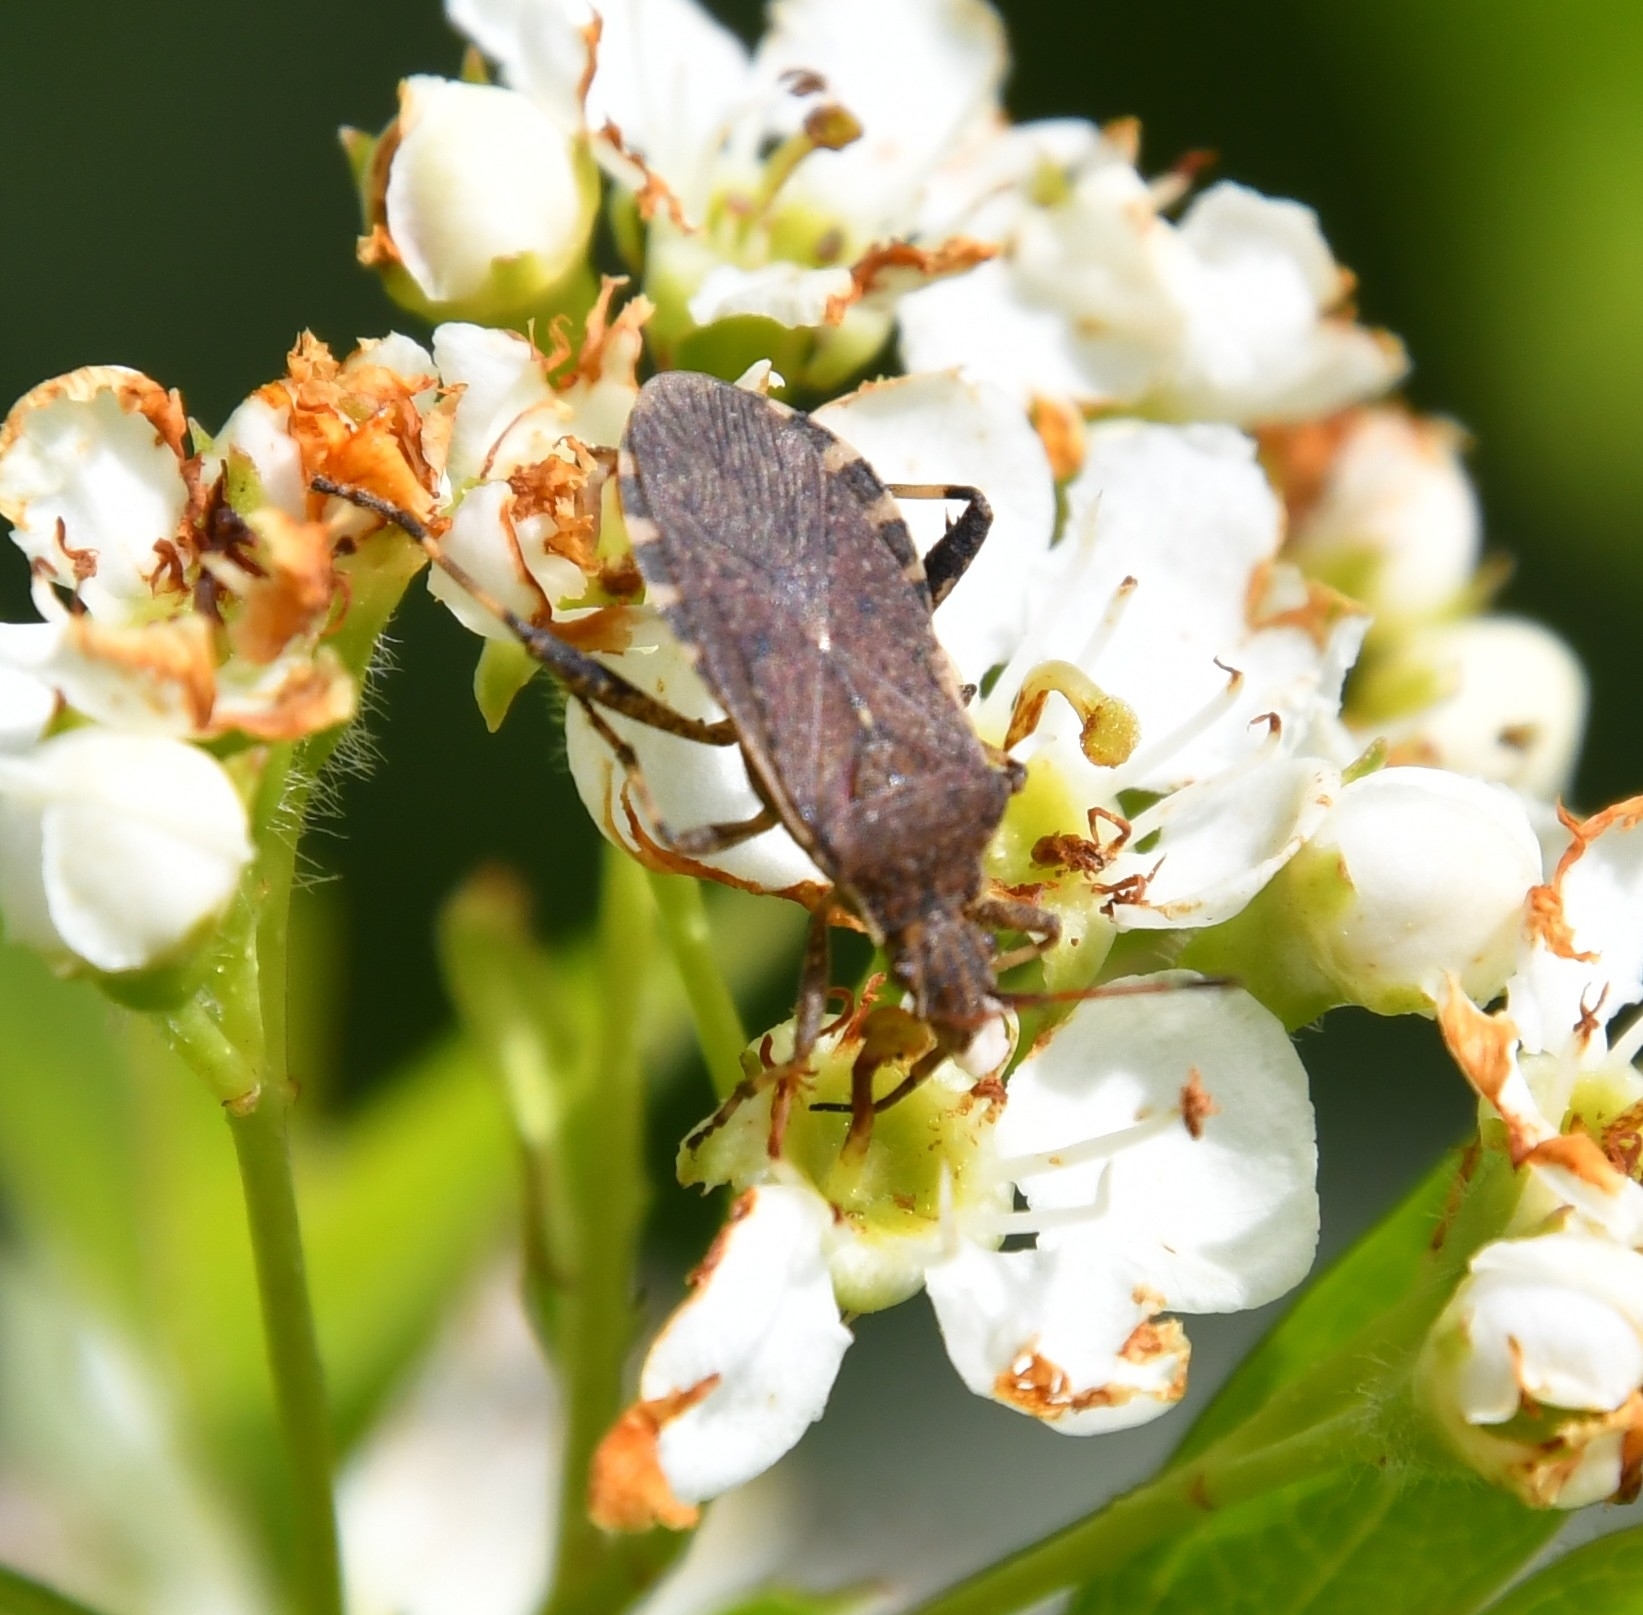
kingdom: Animalia
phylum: Arthropoda
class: Insecta
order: Hemiptera
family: Coreidae
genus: Ceraleptus
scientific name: Ceraleptus gracilicornis
